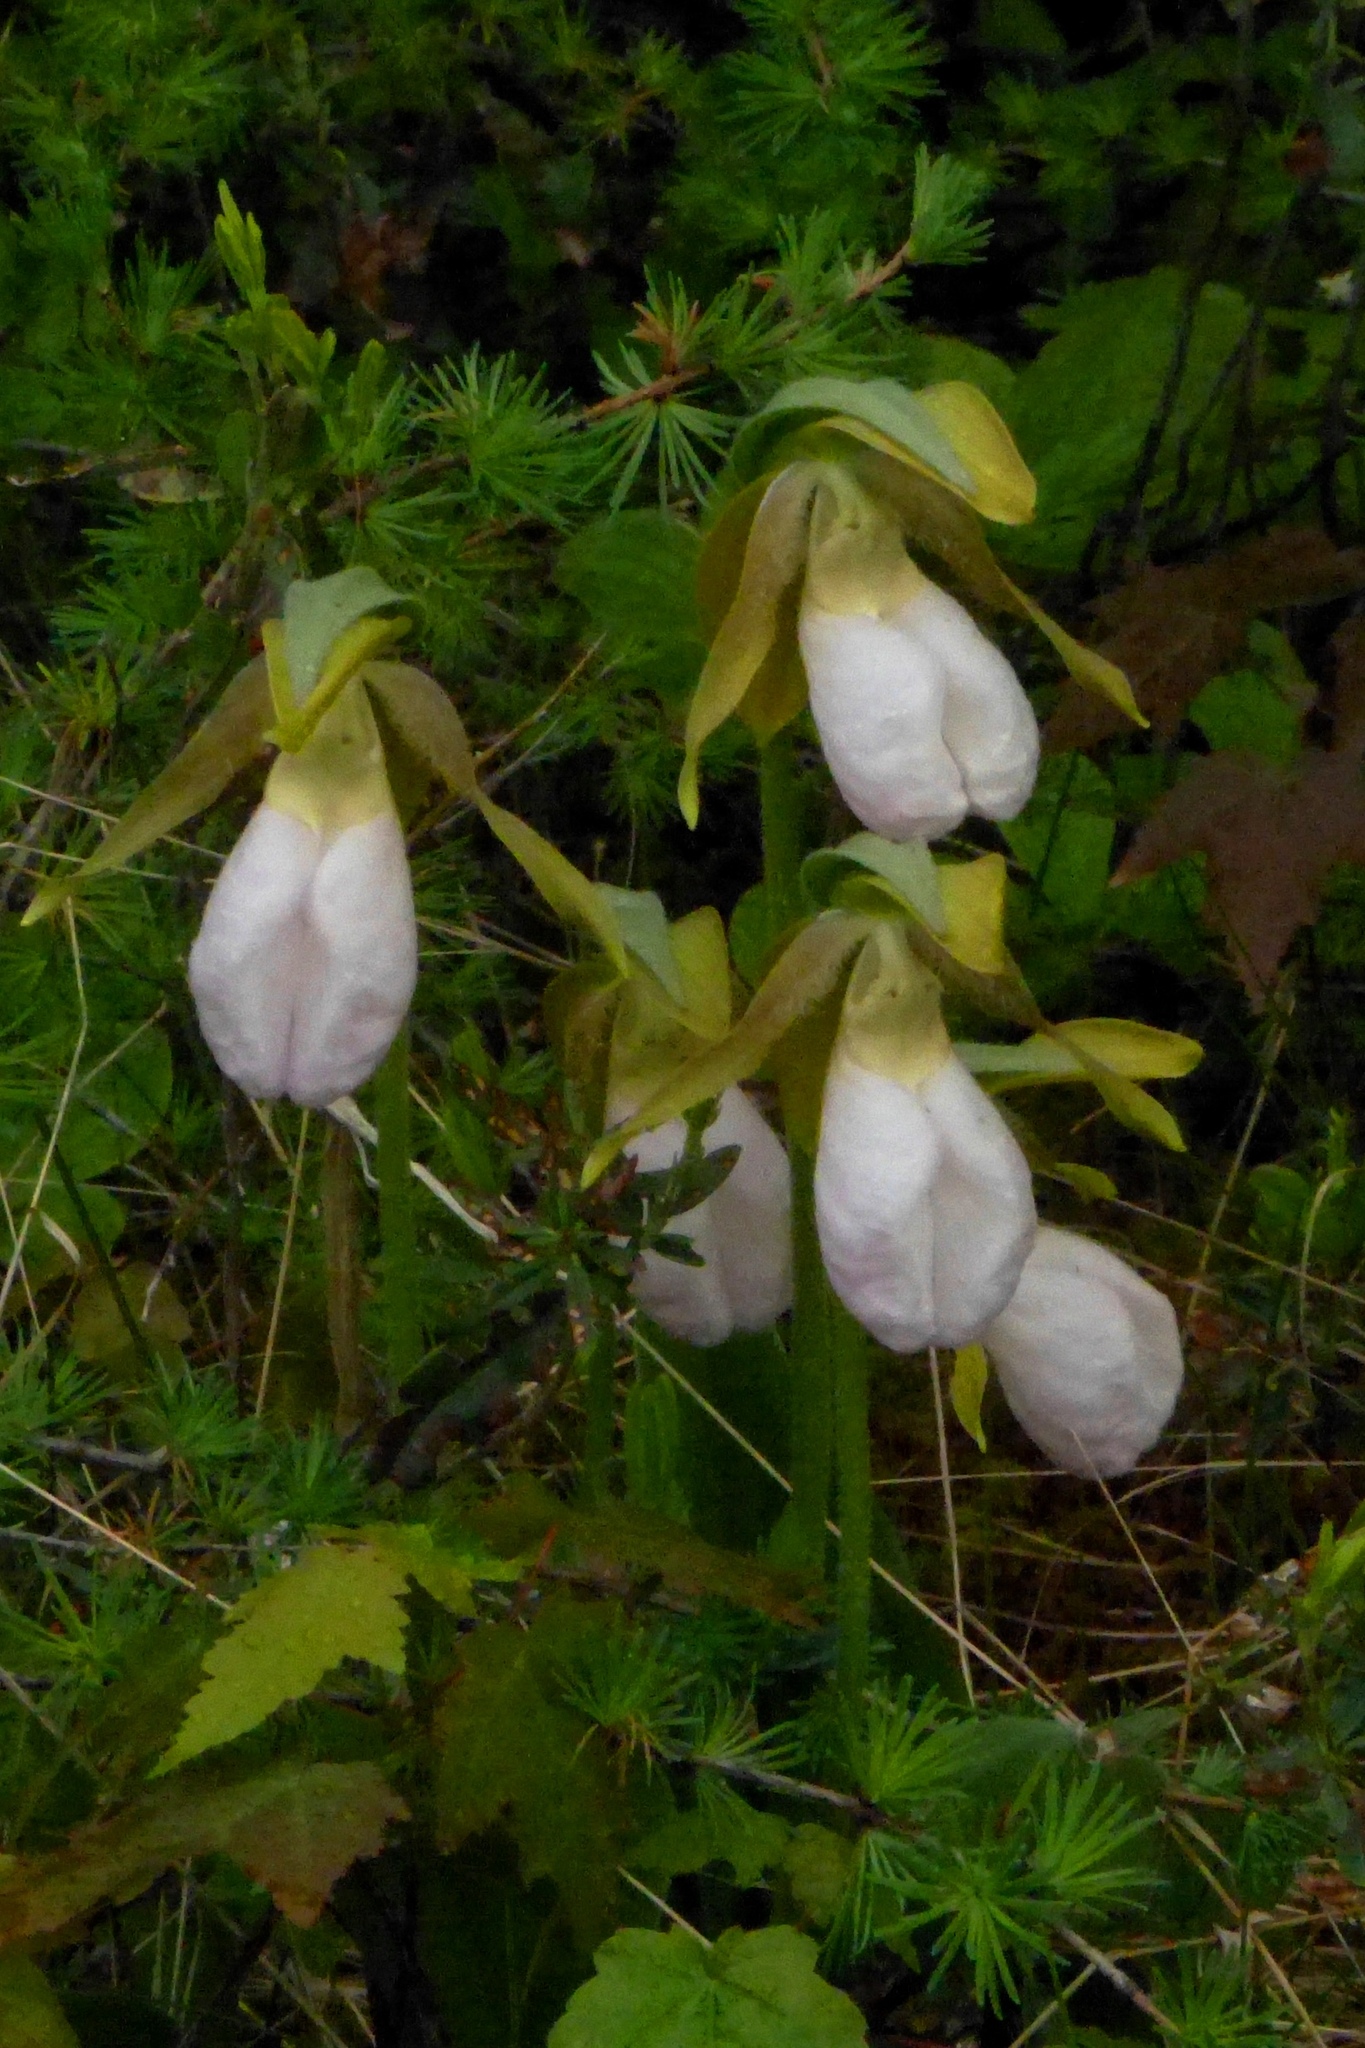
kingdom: Plantae
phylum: Tracheophyta
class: Liliopsida
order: Asparagales
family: Orchidaceae
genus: Cypripedium
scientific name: Cypripedium acaule
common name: Pink lady's-slipper
